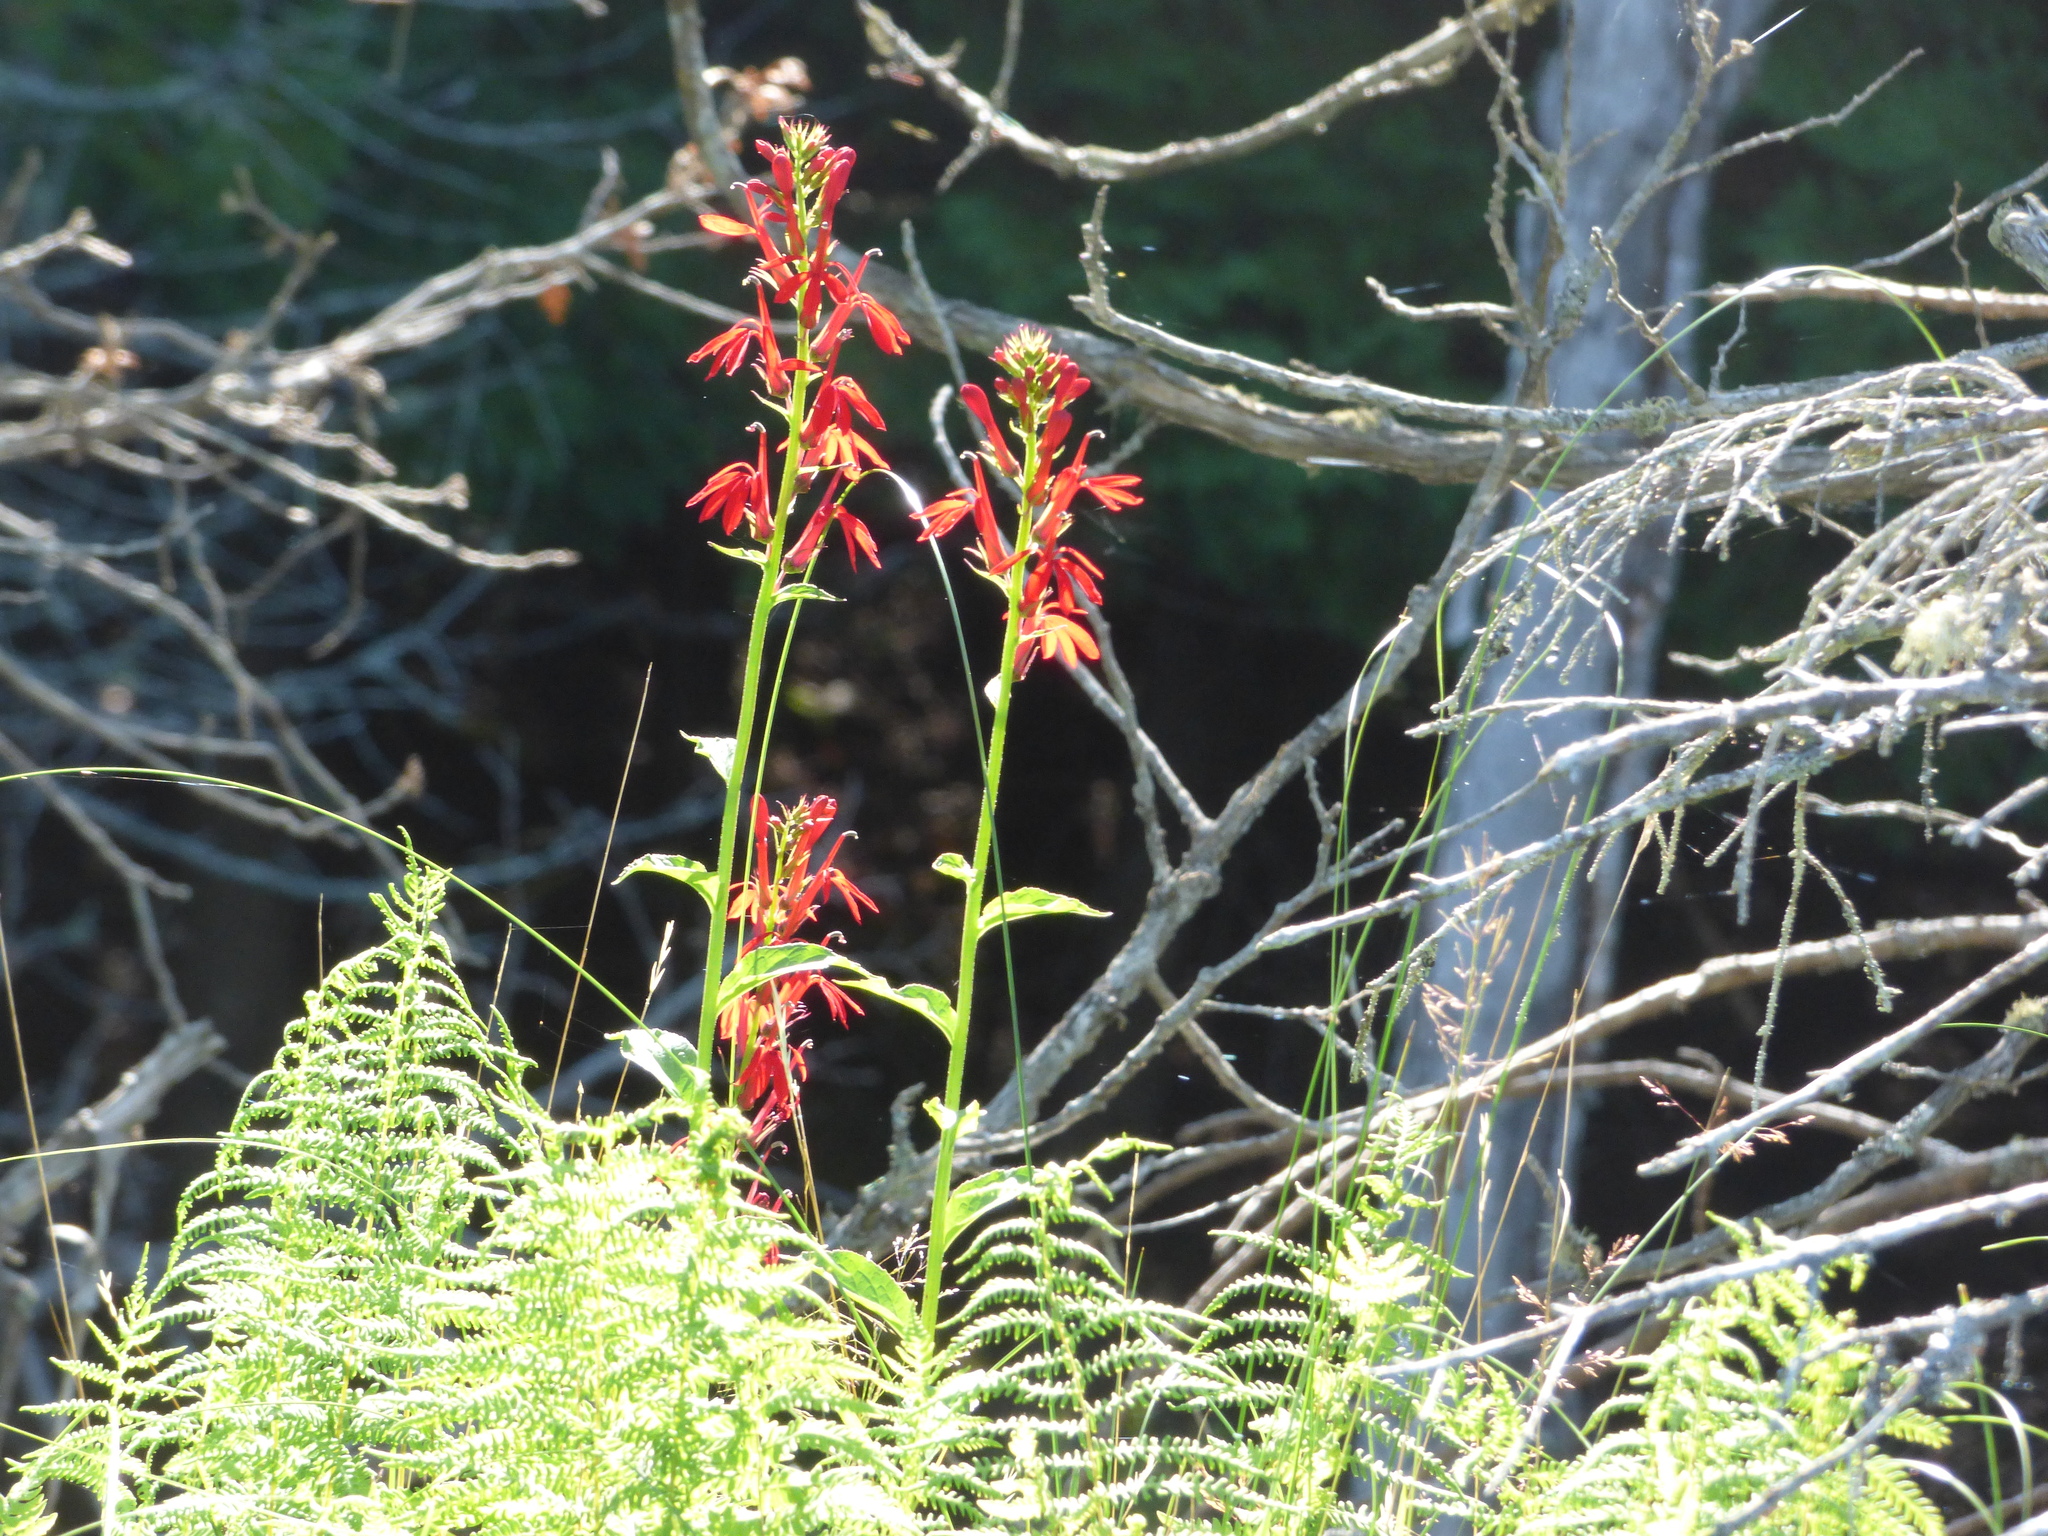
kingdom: Plantae
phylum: Tracheophyta
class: Magnoliopsida
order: Asterales
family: Campanulaceae
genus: Lobelia
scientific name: Lobelia cardinalis
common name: Cardinal flower
